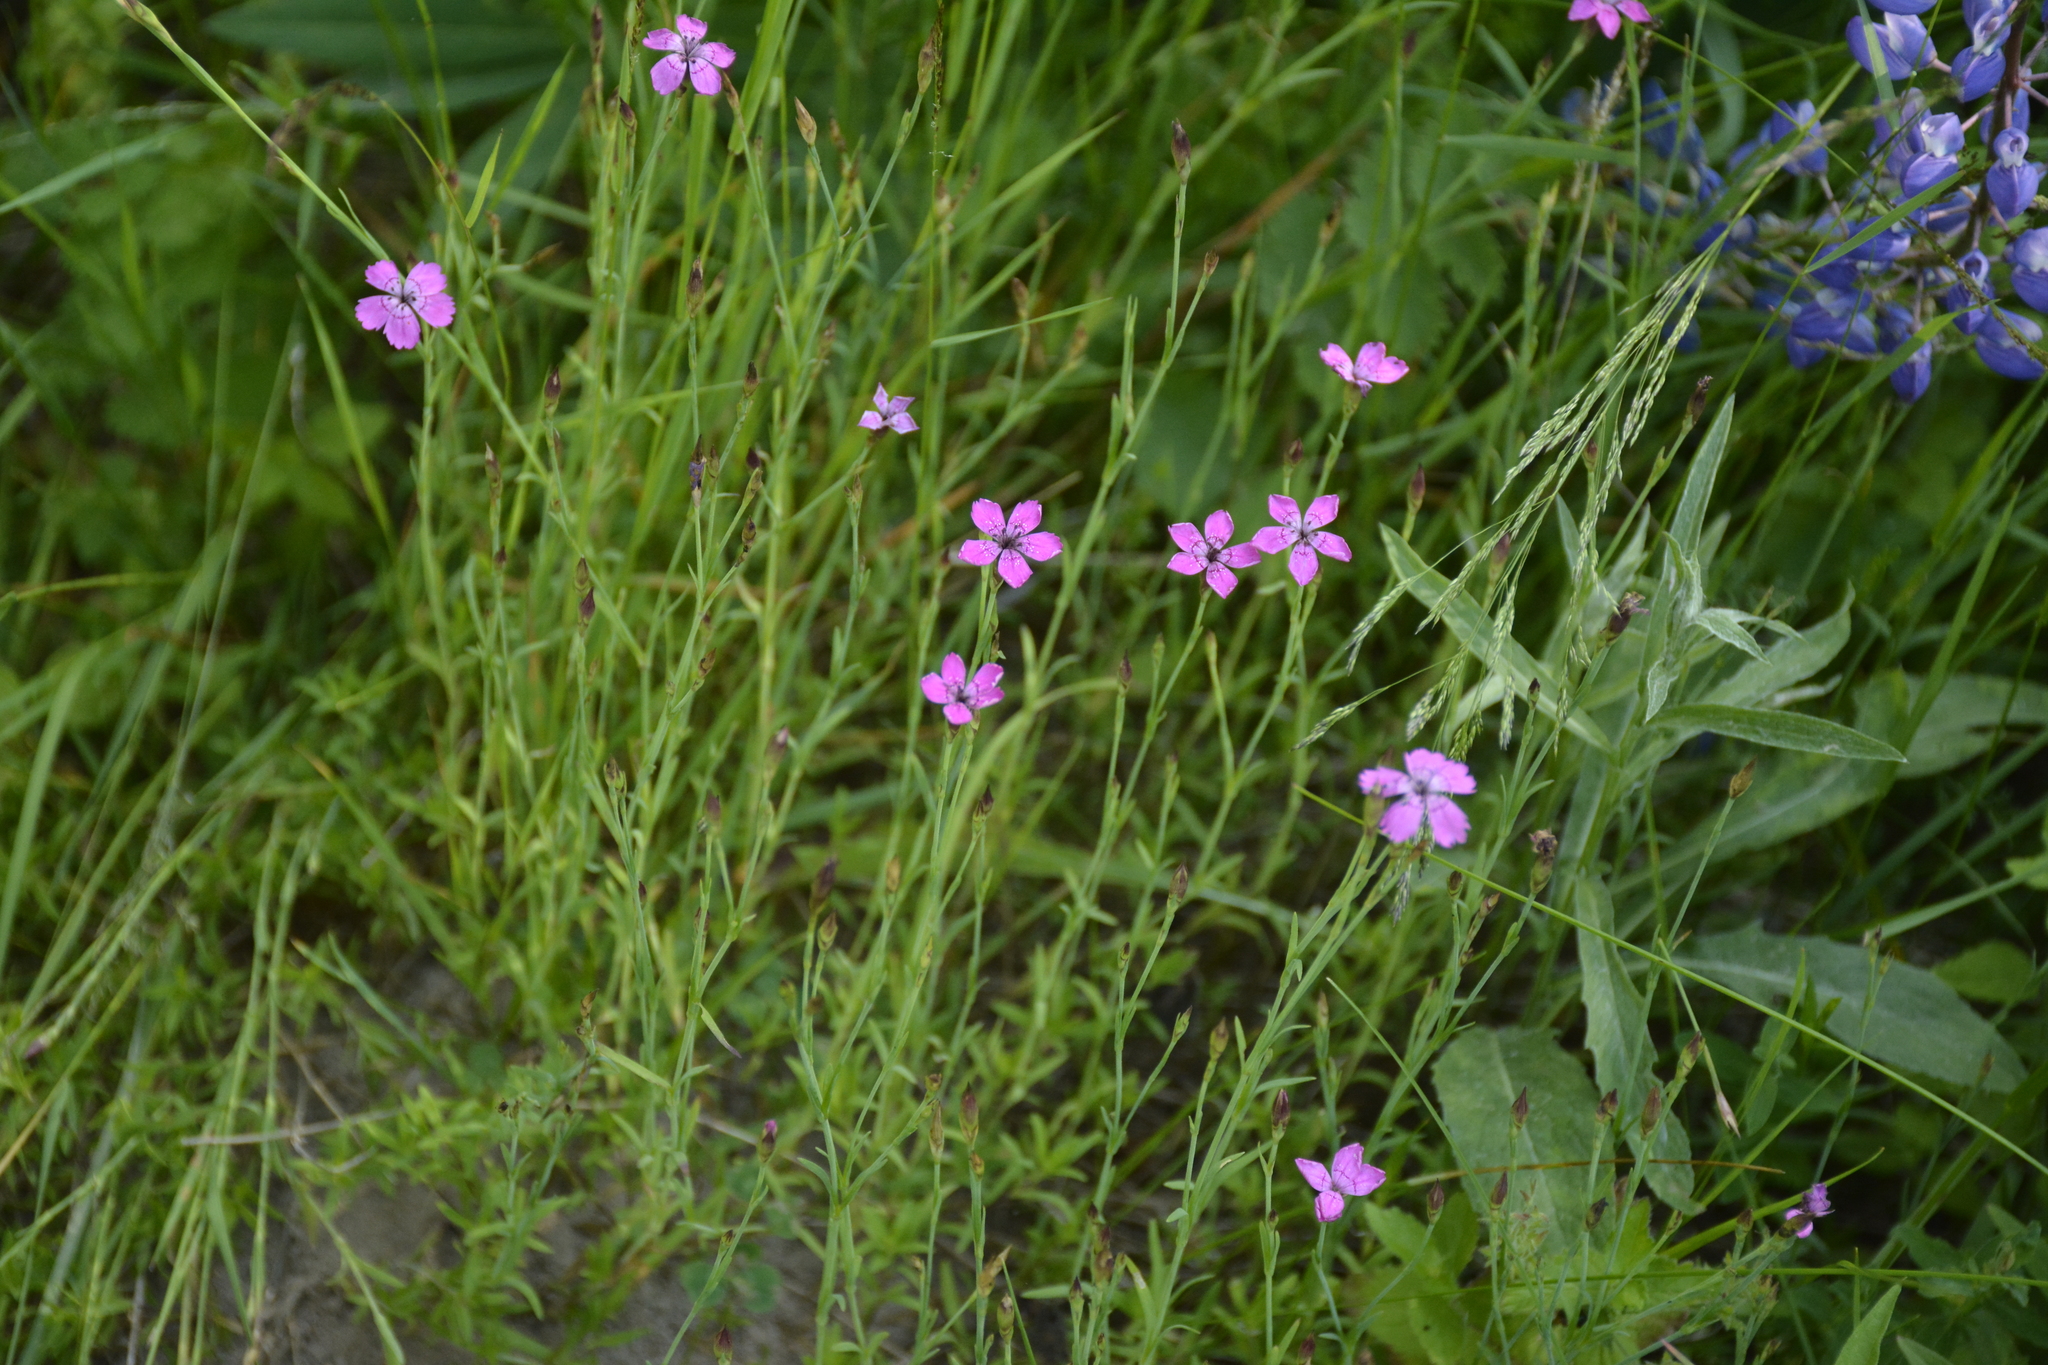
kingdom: Plantae
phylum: Tracheophyta
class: Magnoliopsida
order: Caryophyllales
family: Caryophyllaceae
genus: Dianthus
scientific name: Dianthus deltoides
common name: Maiden pink
